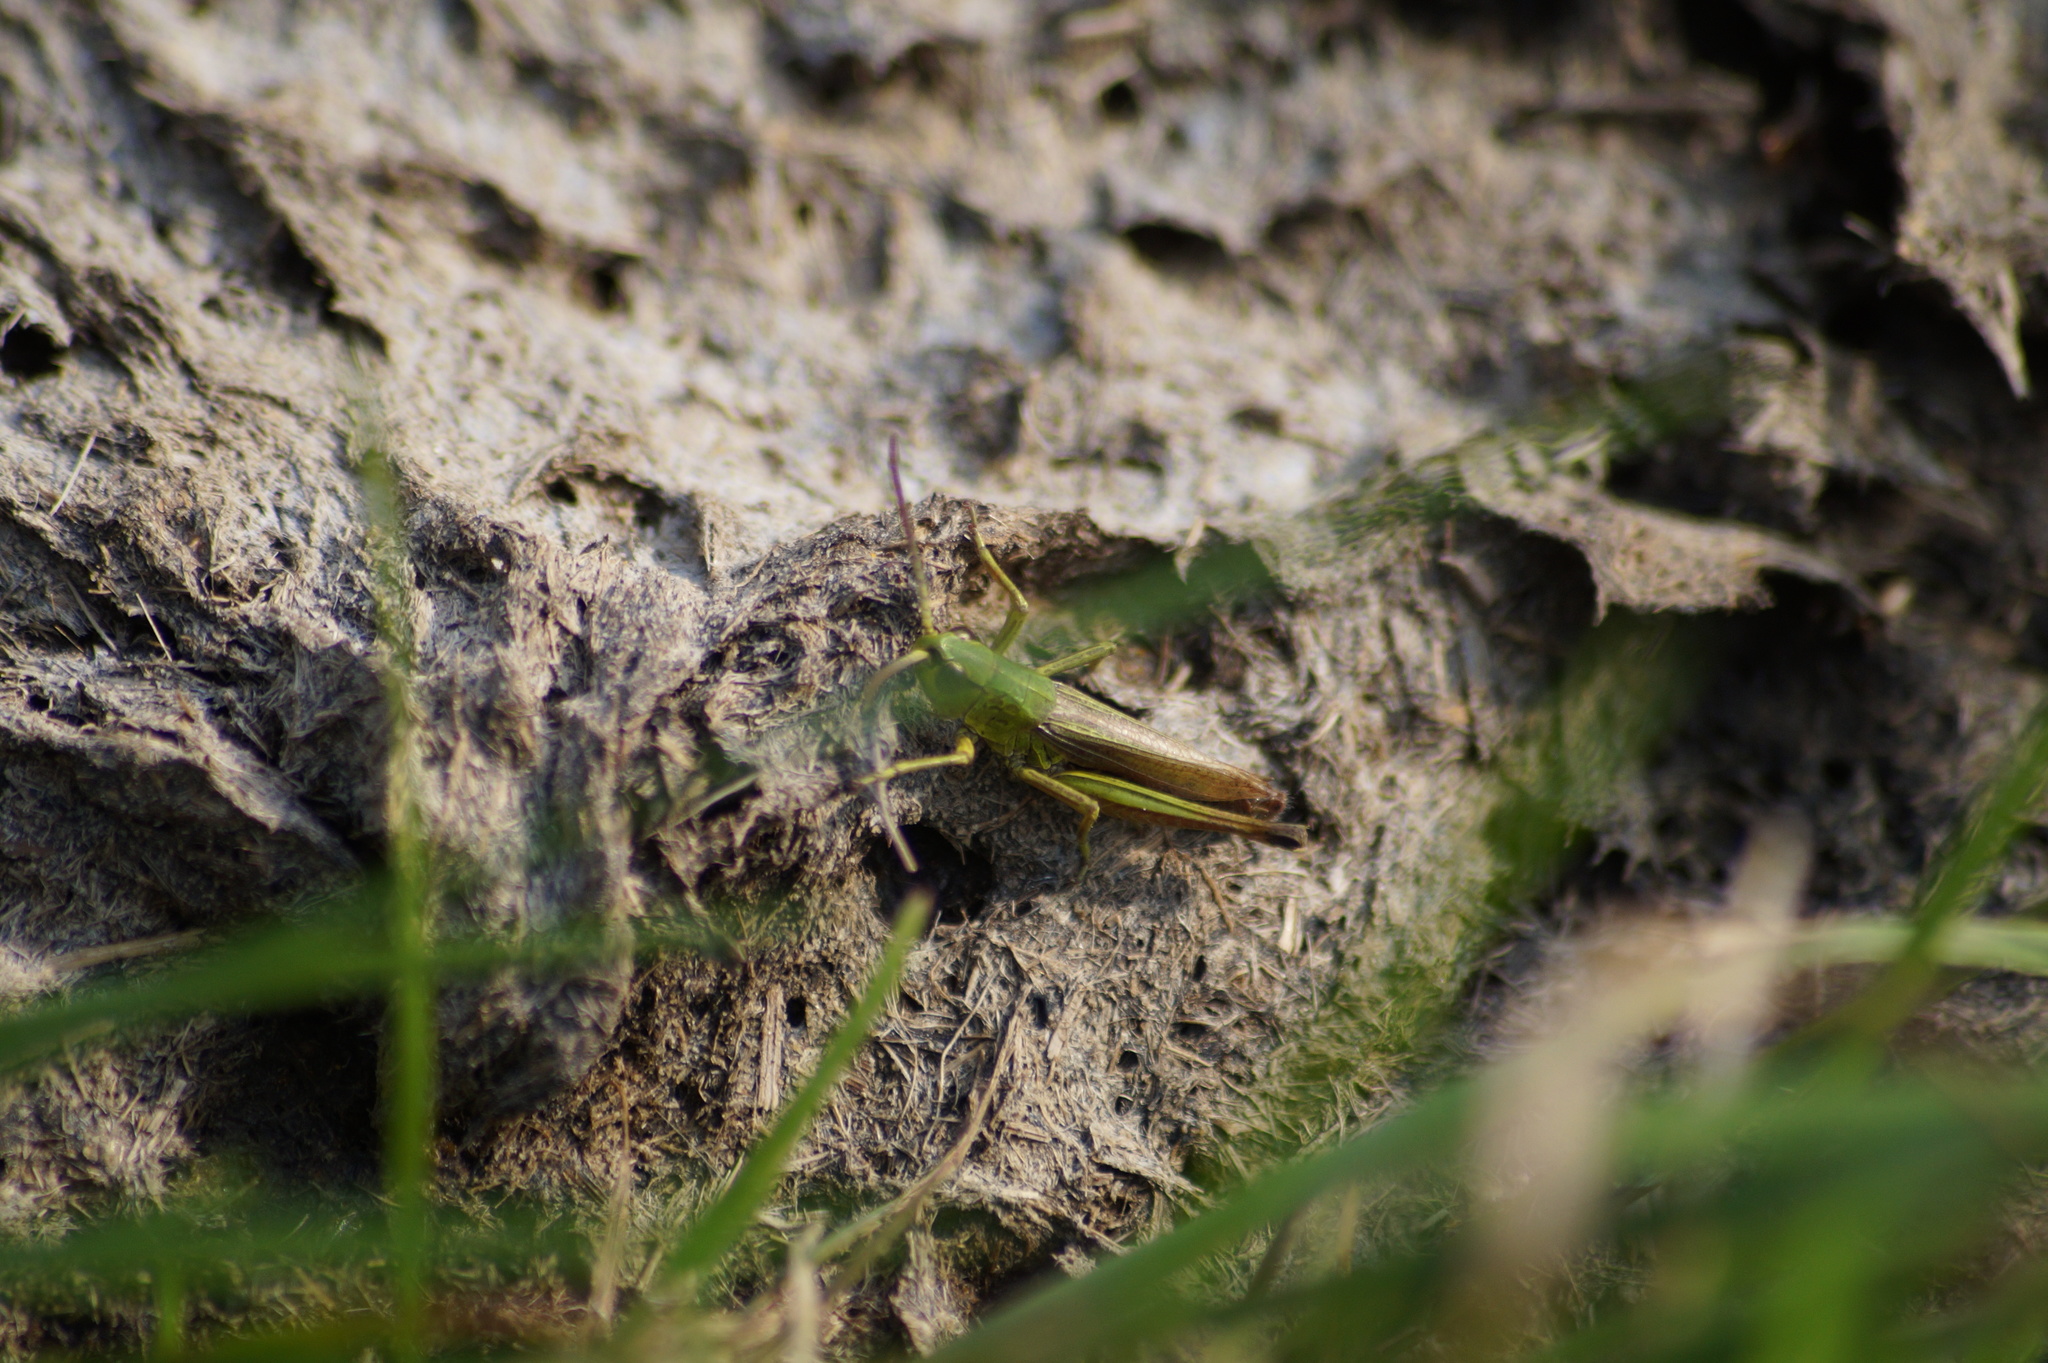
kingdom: Animalia
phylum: Arthropoda
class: Insecta
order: Orthoptera
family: Acrididae
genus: Pseudochorthippus
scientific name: Pseudochorthippus parallelus
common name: Meadow grasshopper
